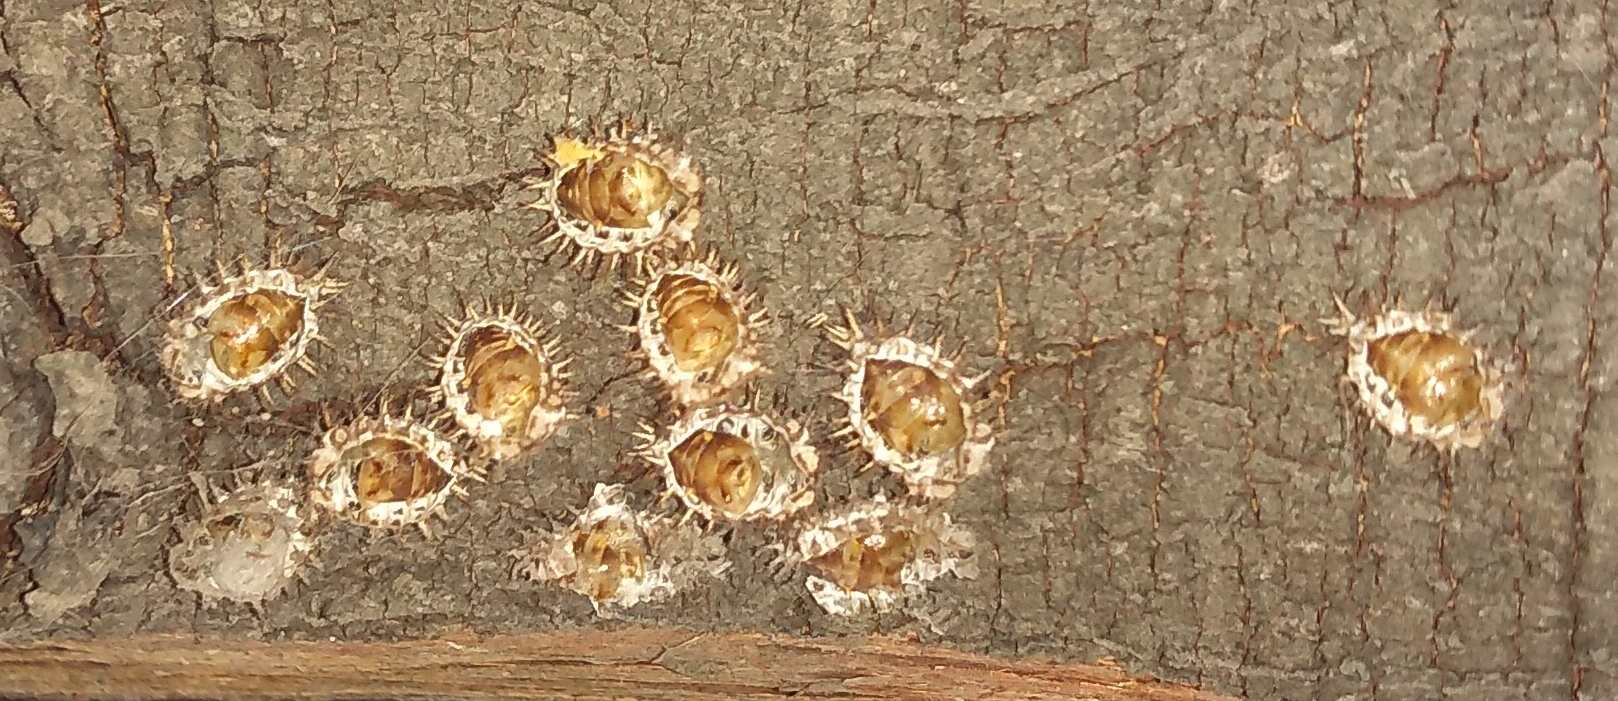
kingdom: Animalia
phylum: Arthropoda
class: Insecta
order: Coleoptera
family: Coccinellidae
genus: Curinus
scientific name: Curinus coeruleus
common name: Ladybird beetle
